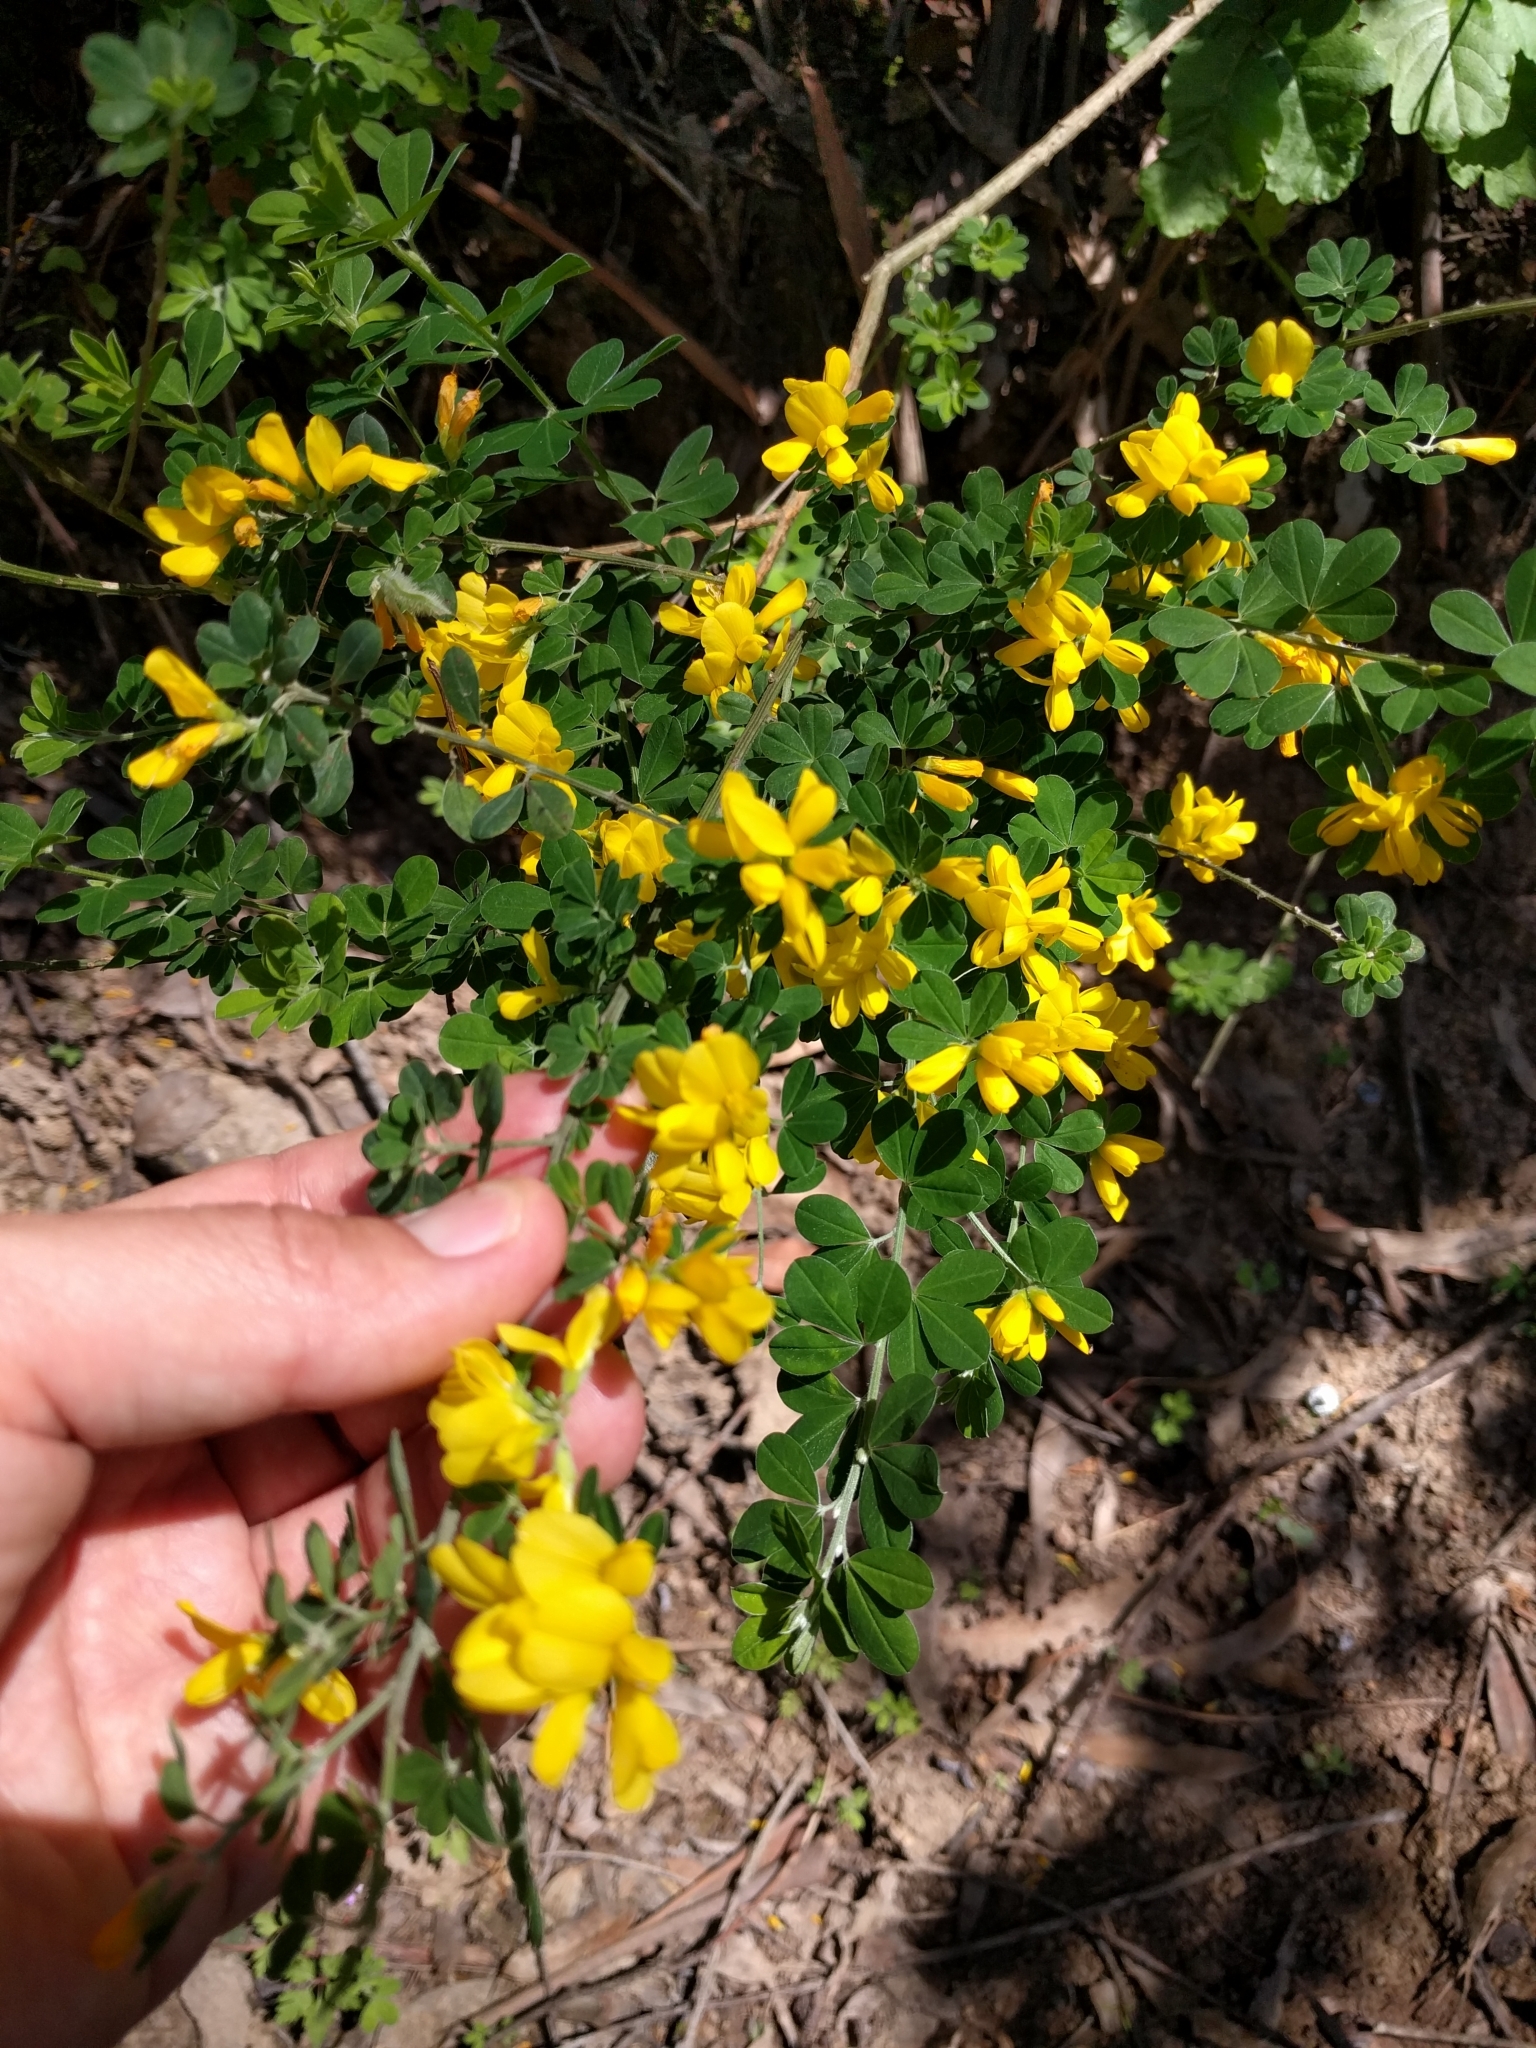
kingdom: Plantae
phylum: Tracheophyta
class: Magnoliopsida
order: Fabales
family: Fabaceae
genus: Genista
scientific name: Genista monspessulana
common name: Montpellier broom
